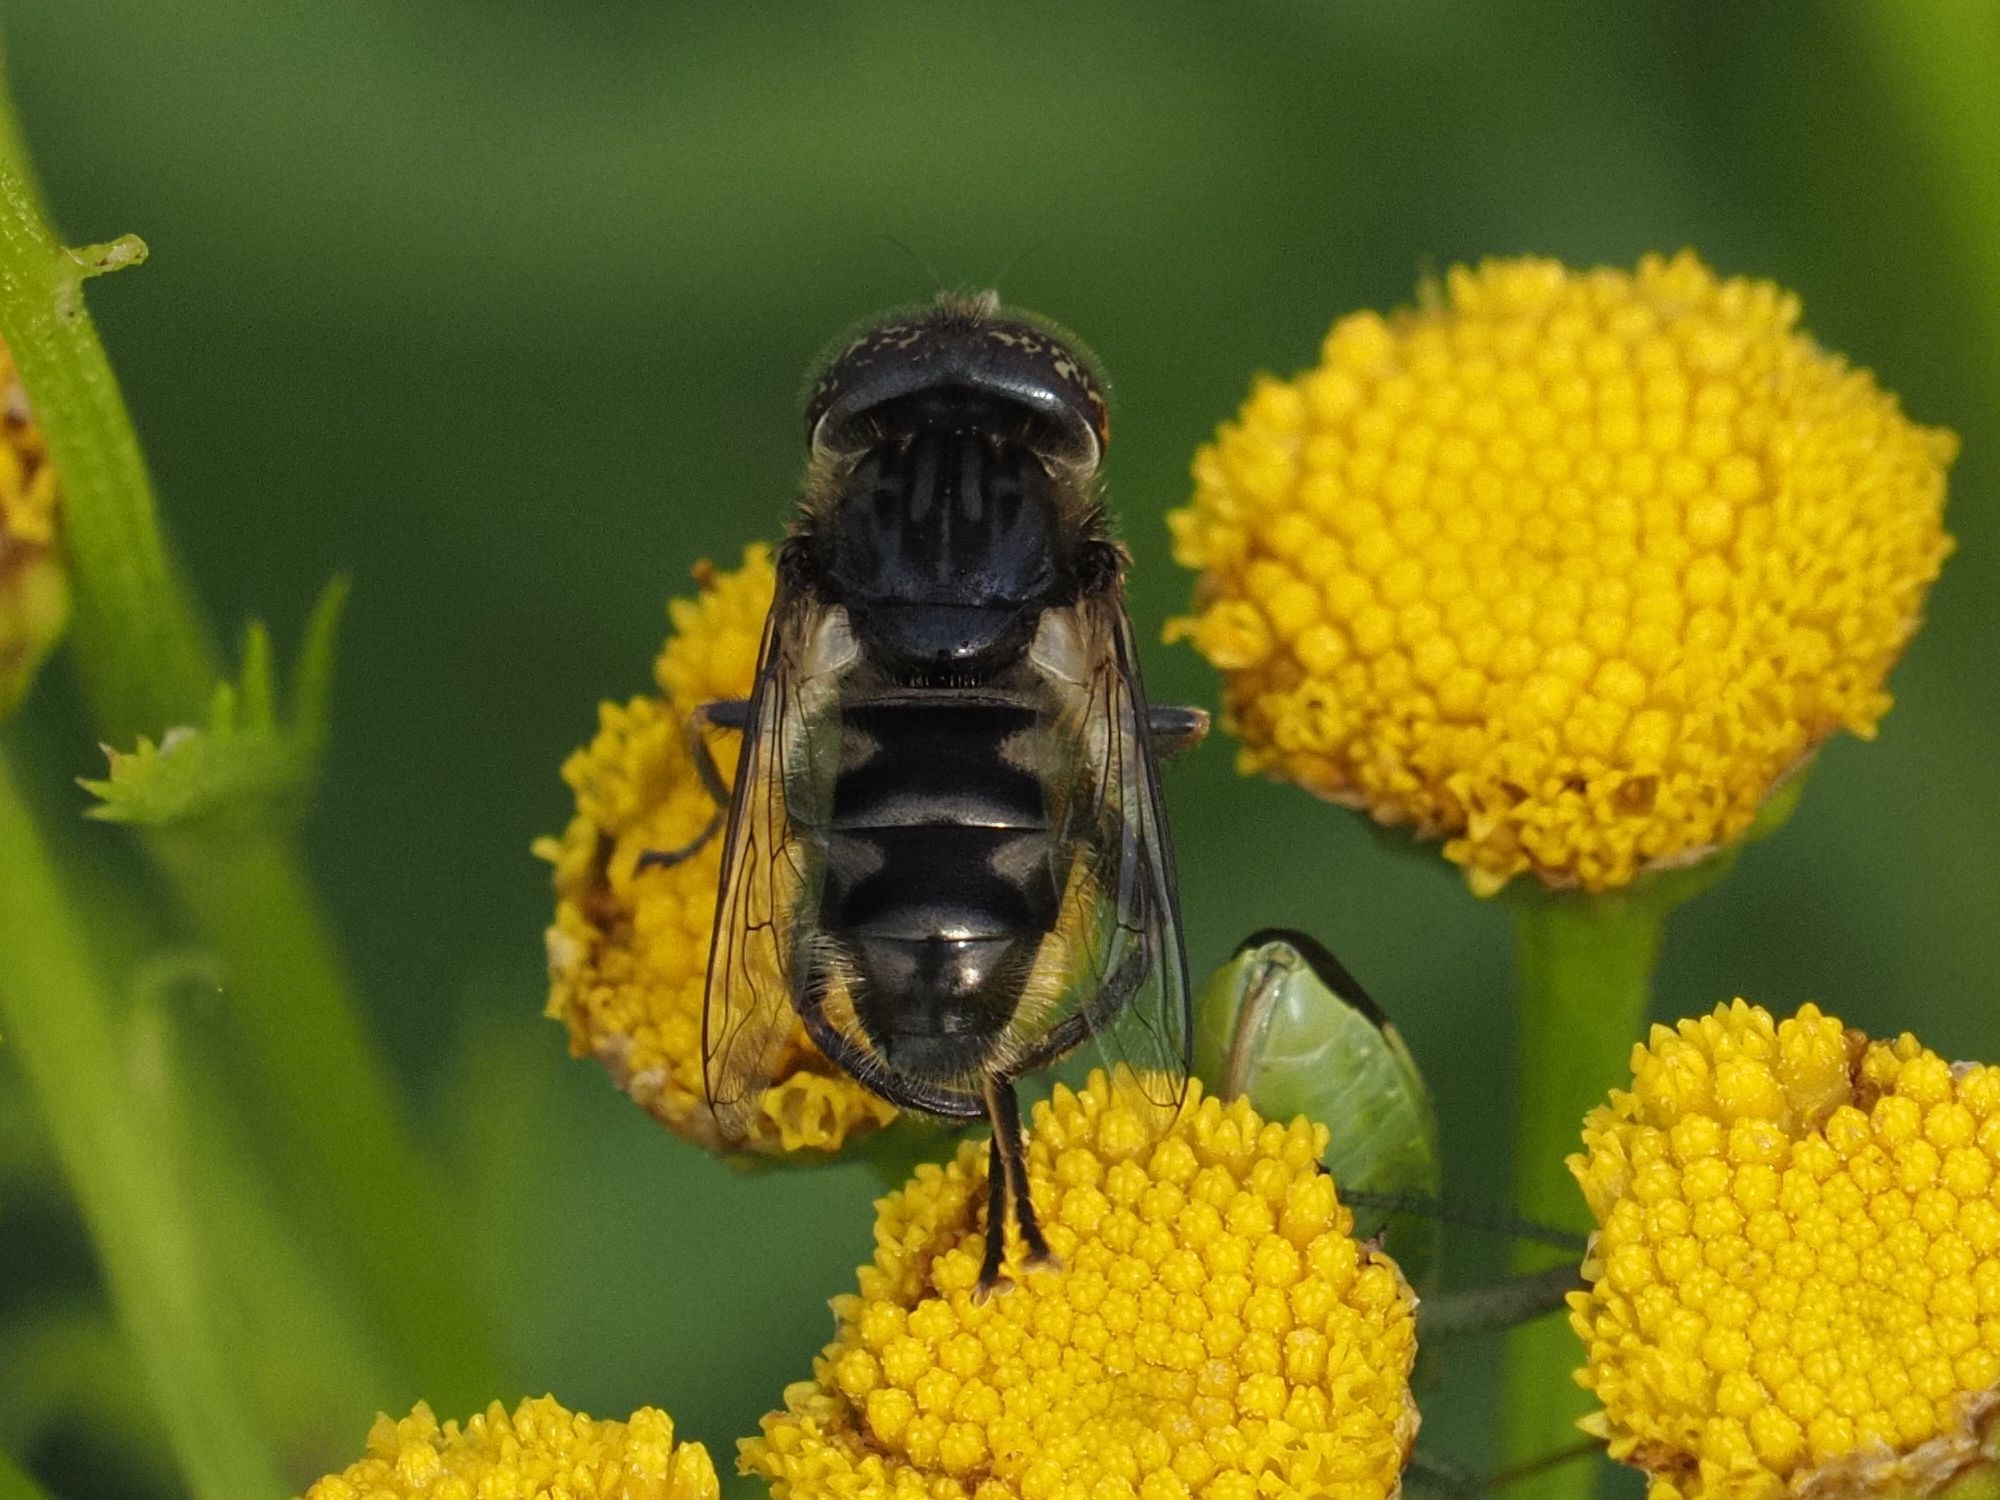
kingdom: Animalia
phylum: Arthropoda
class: Insecta
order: Diptera
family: Syrphidae
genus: Eristalinus
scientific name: Eristalinus sepulchralis
